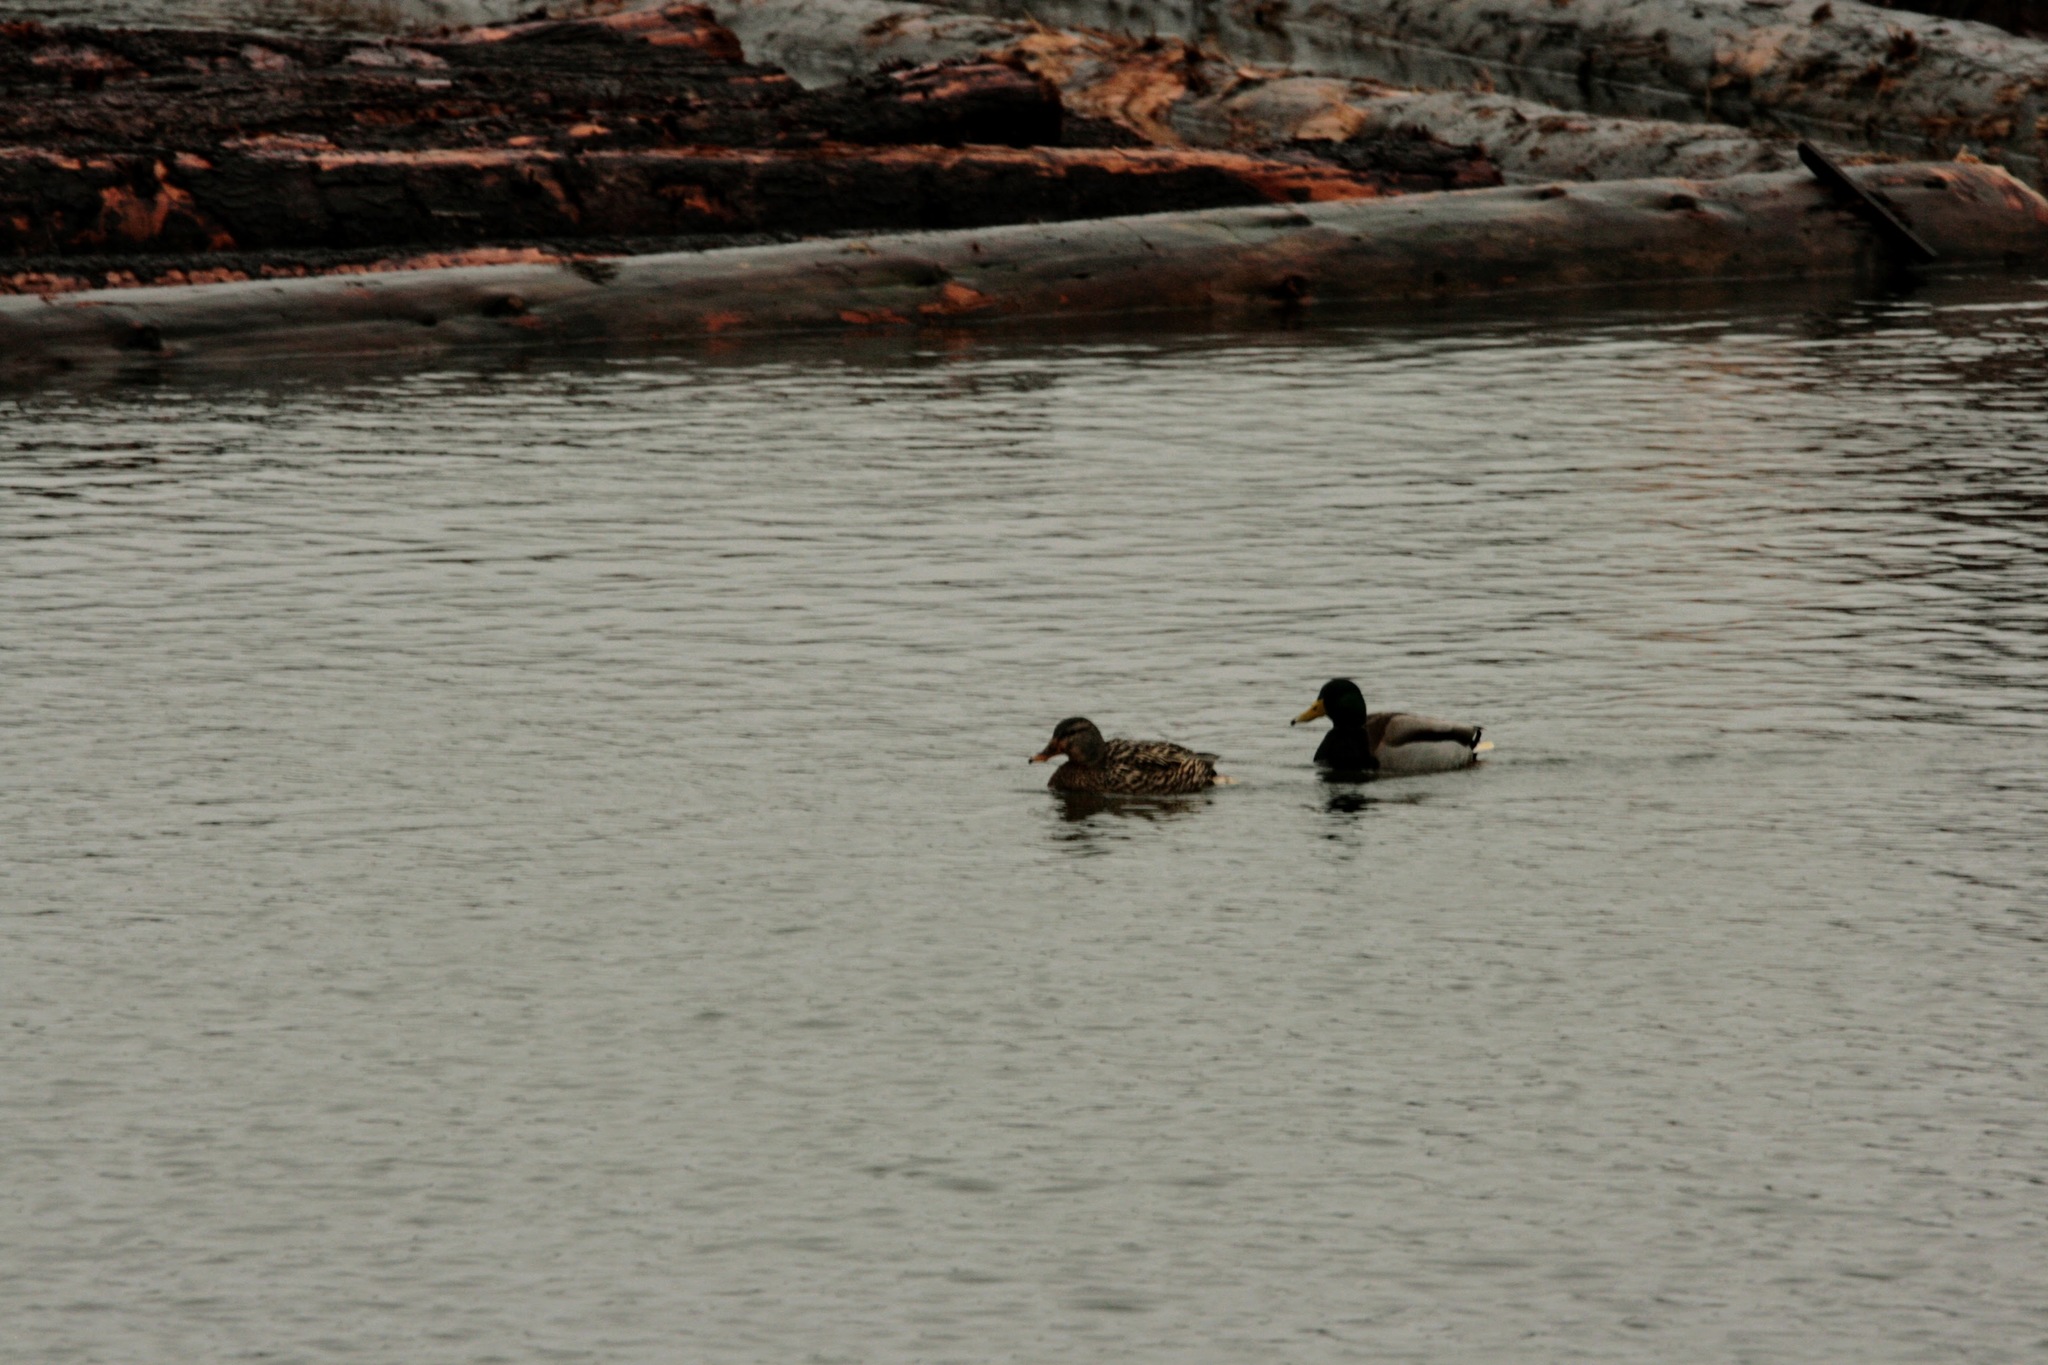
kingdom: Animalia
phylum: Chordata
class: Aves
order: Anseriformes
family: Anatidae
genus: Anas
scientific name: Anas platyrhynchos
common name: Mallard
